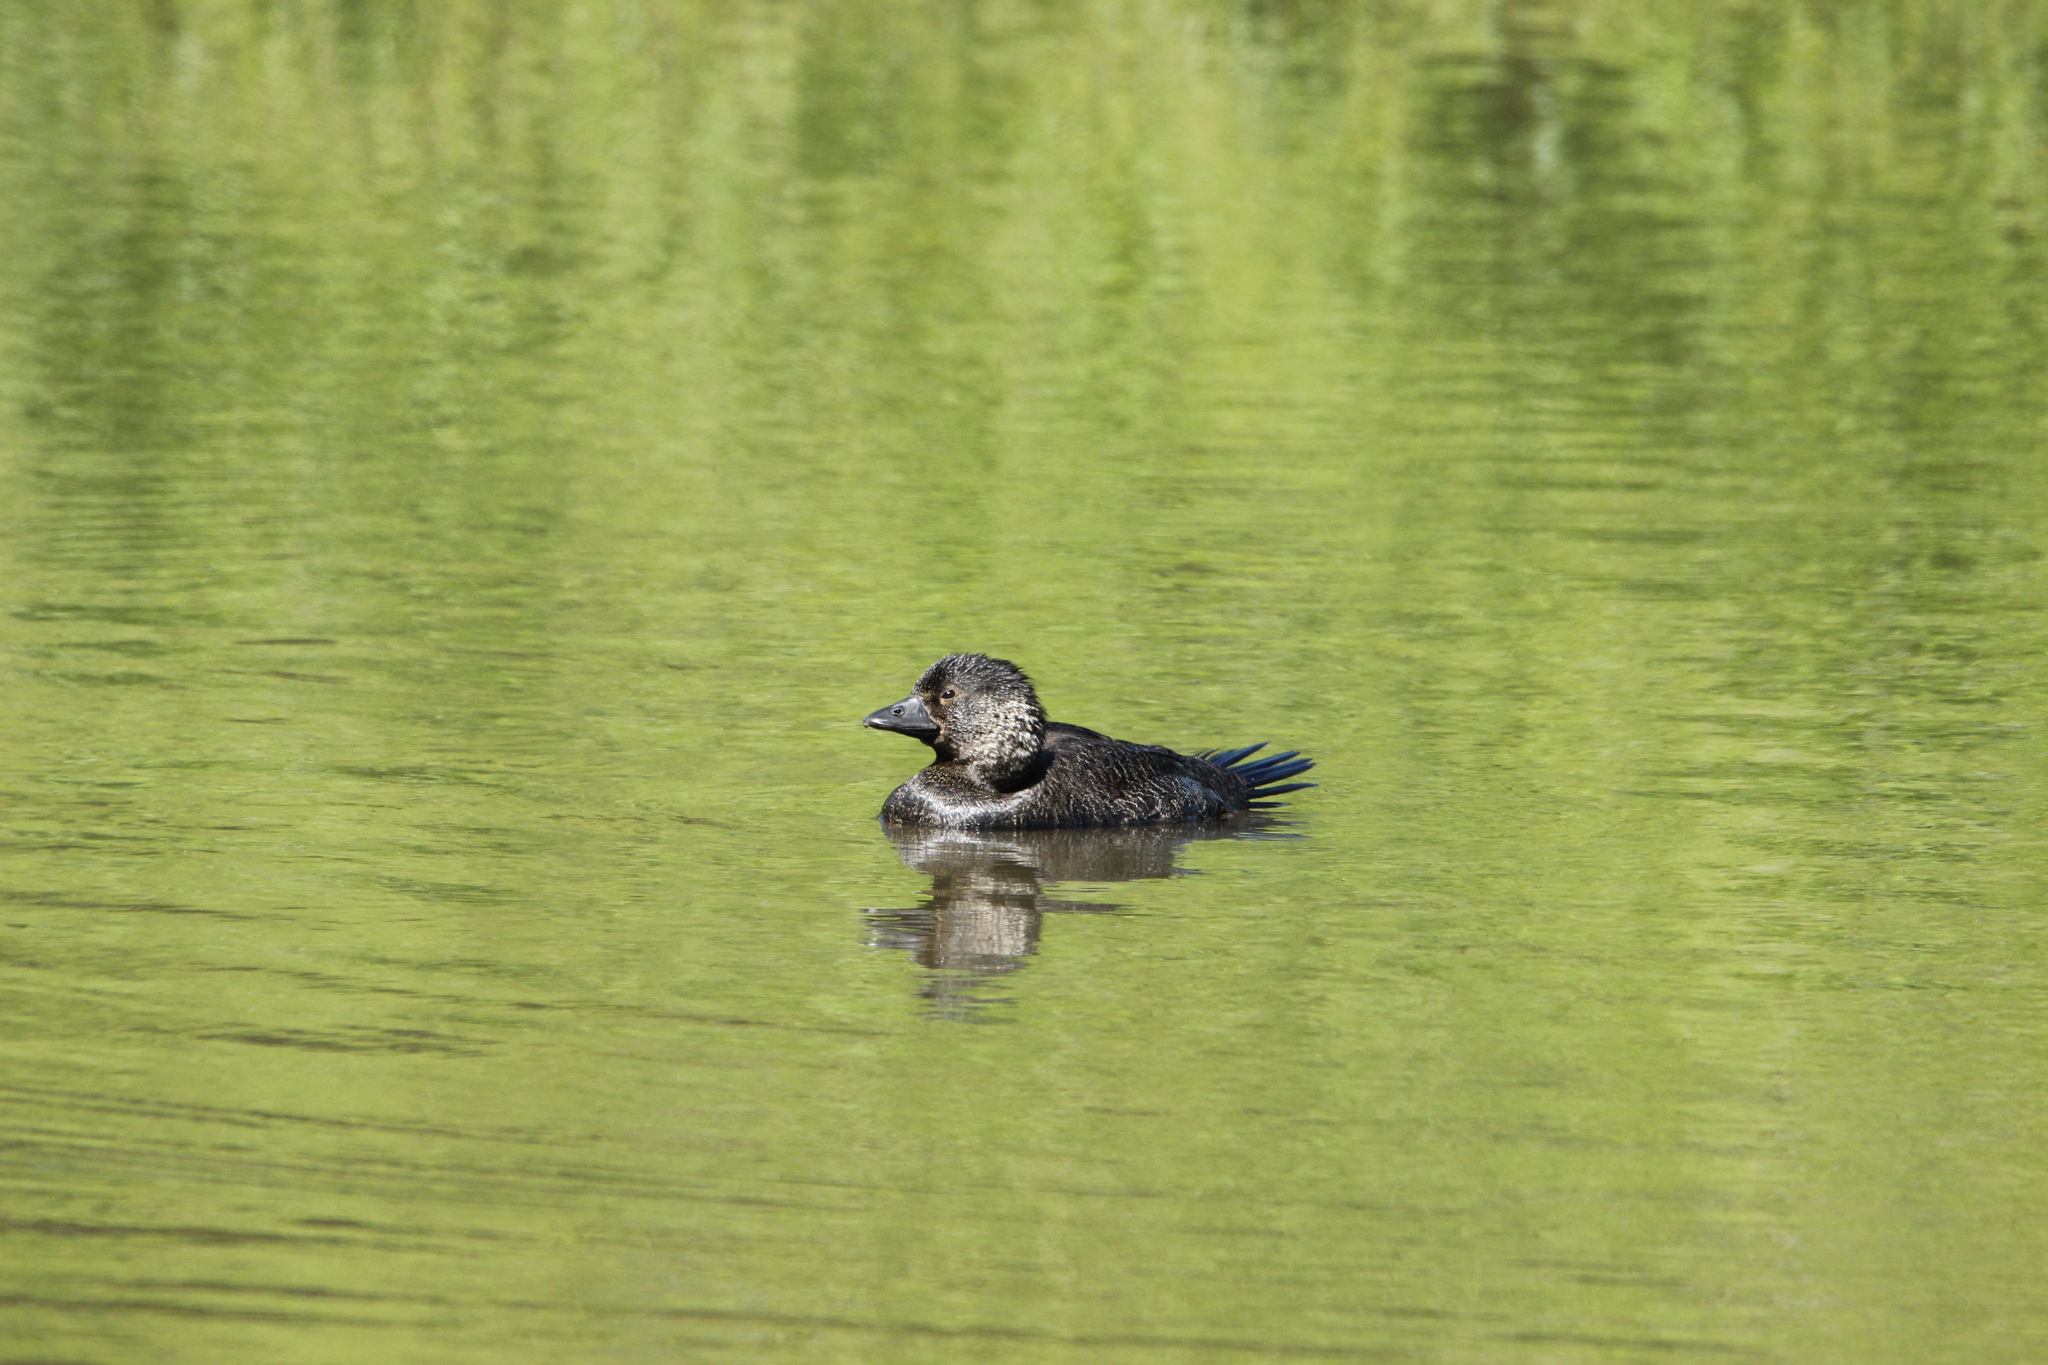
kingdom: Animalia
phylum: Chordata
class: Aves
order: Anseriformes
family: Anatidae
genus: Biziura
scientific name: Biziura lobata
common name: Musk duck
